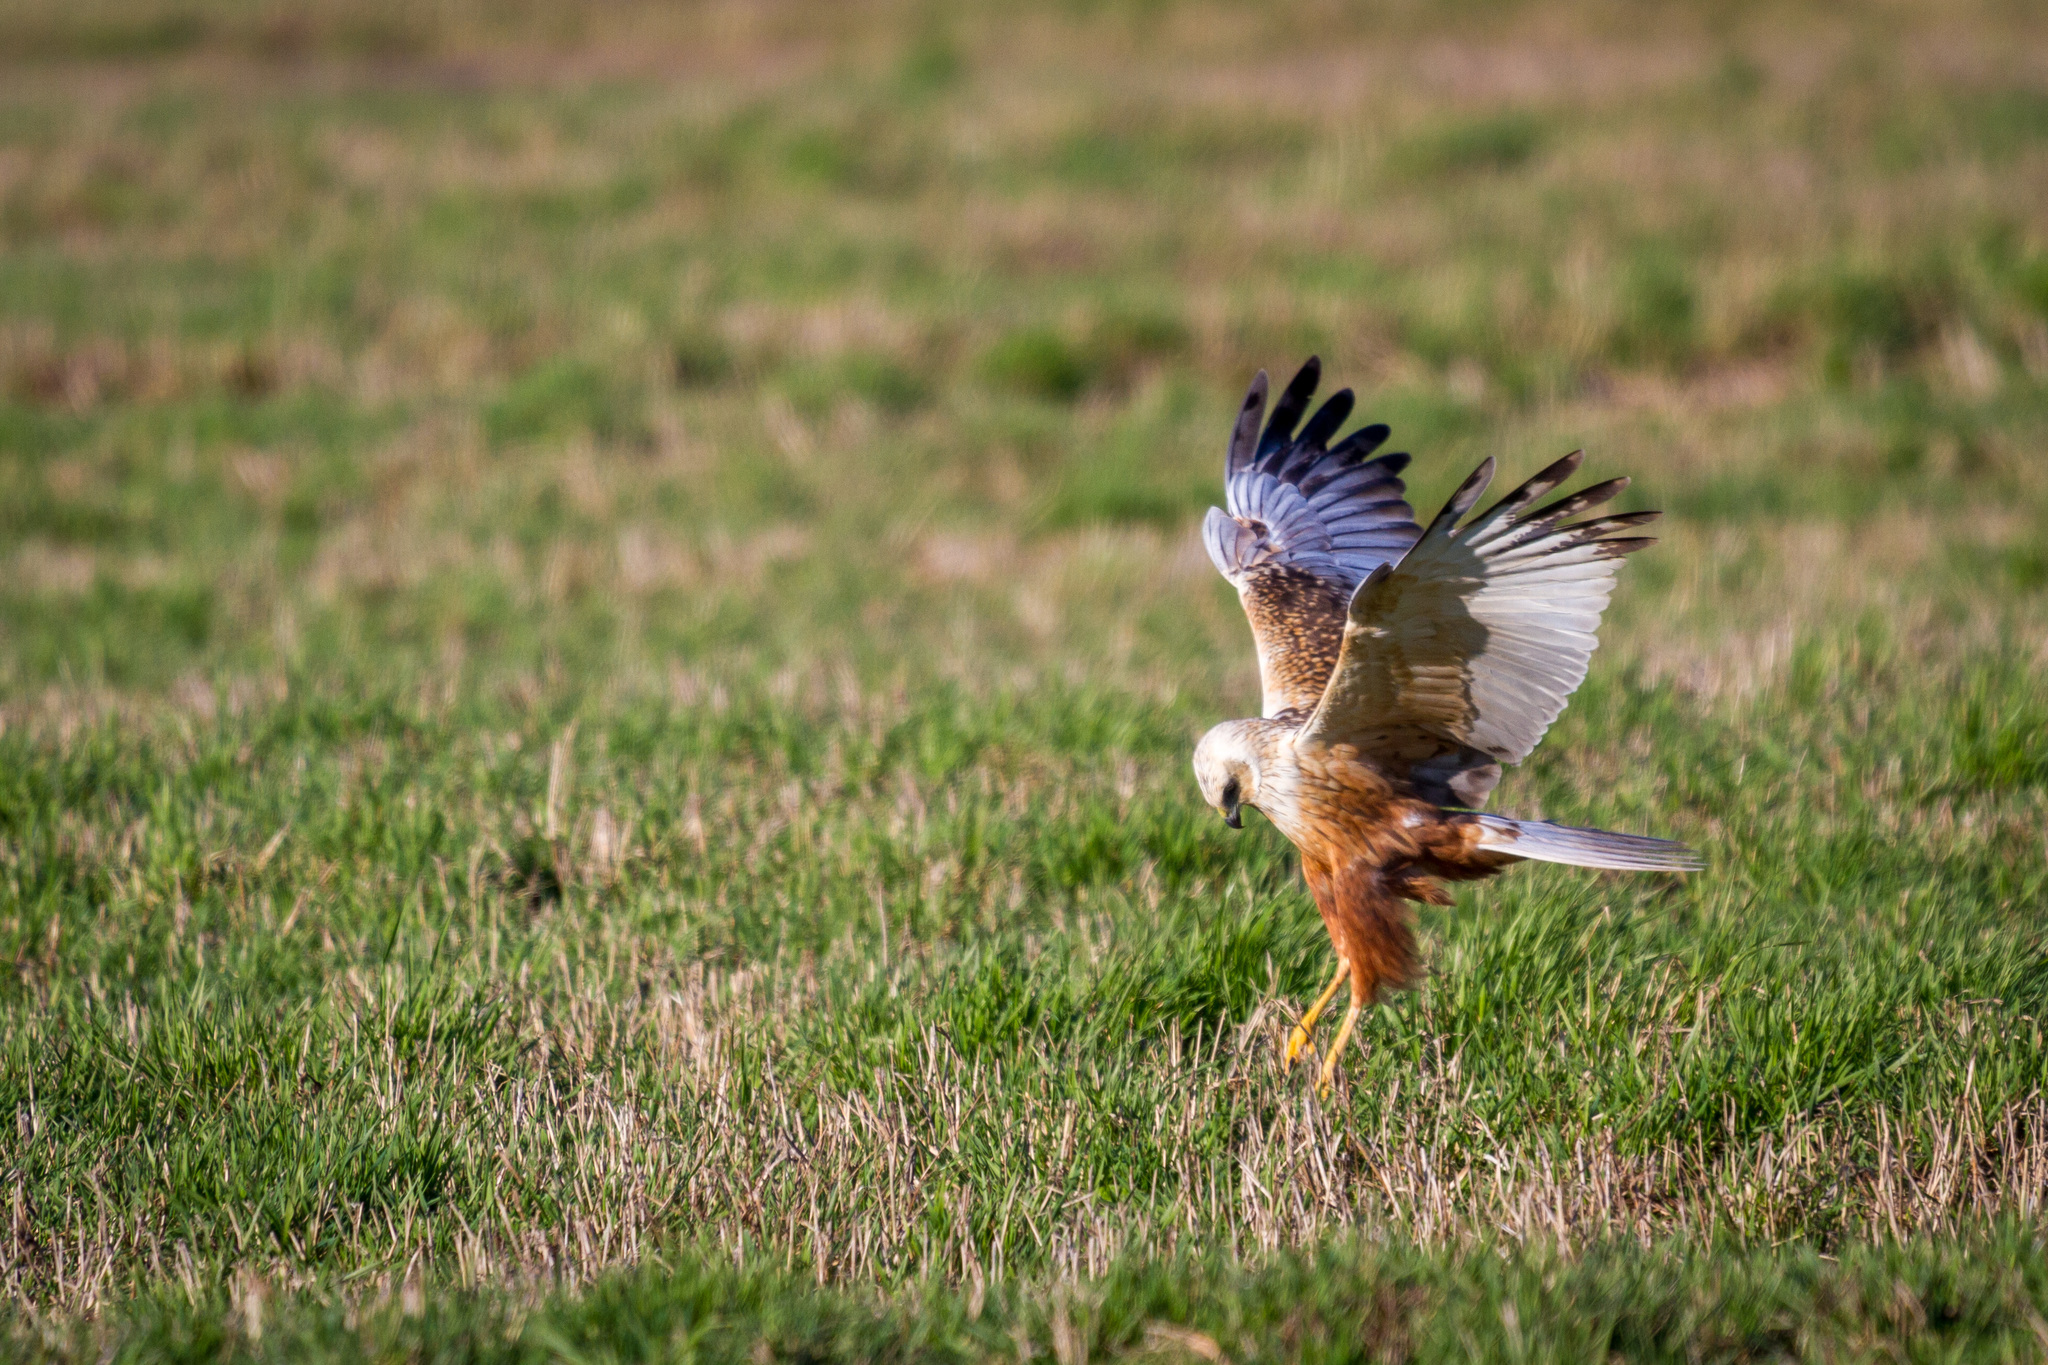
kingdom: Animalia
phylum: Chordata
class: Aves
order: Accipitriformes
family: Accipitridae
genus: Circus
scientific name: Circus aeruginosus
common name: Western marsh harrier
